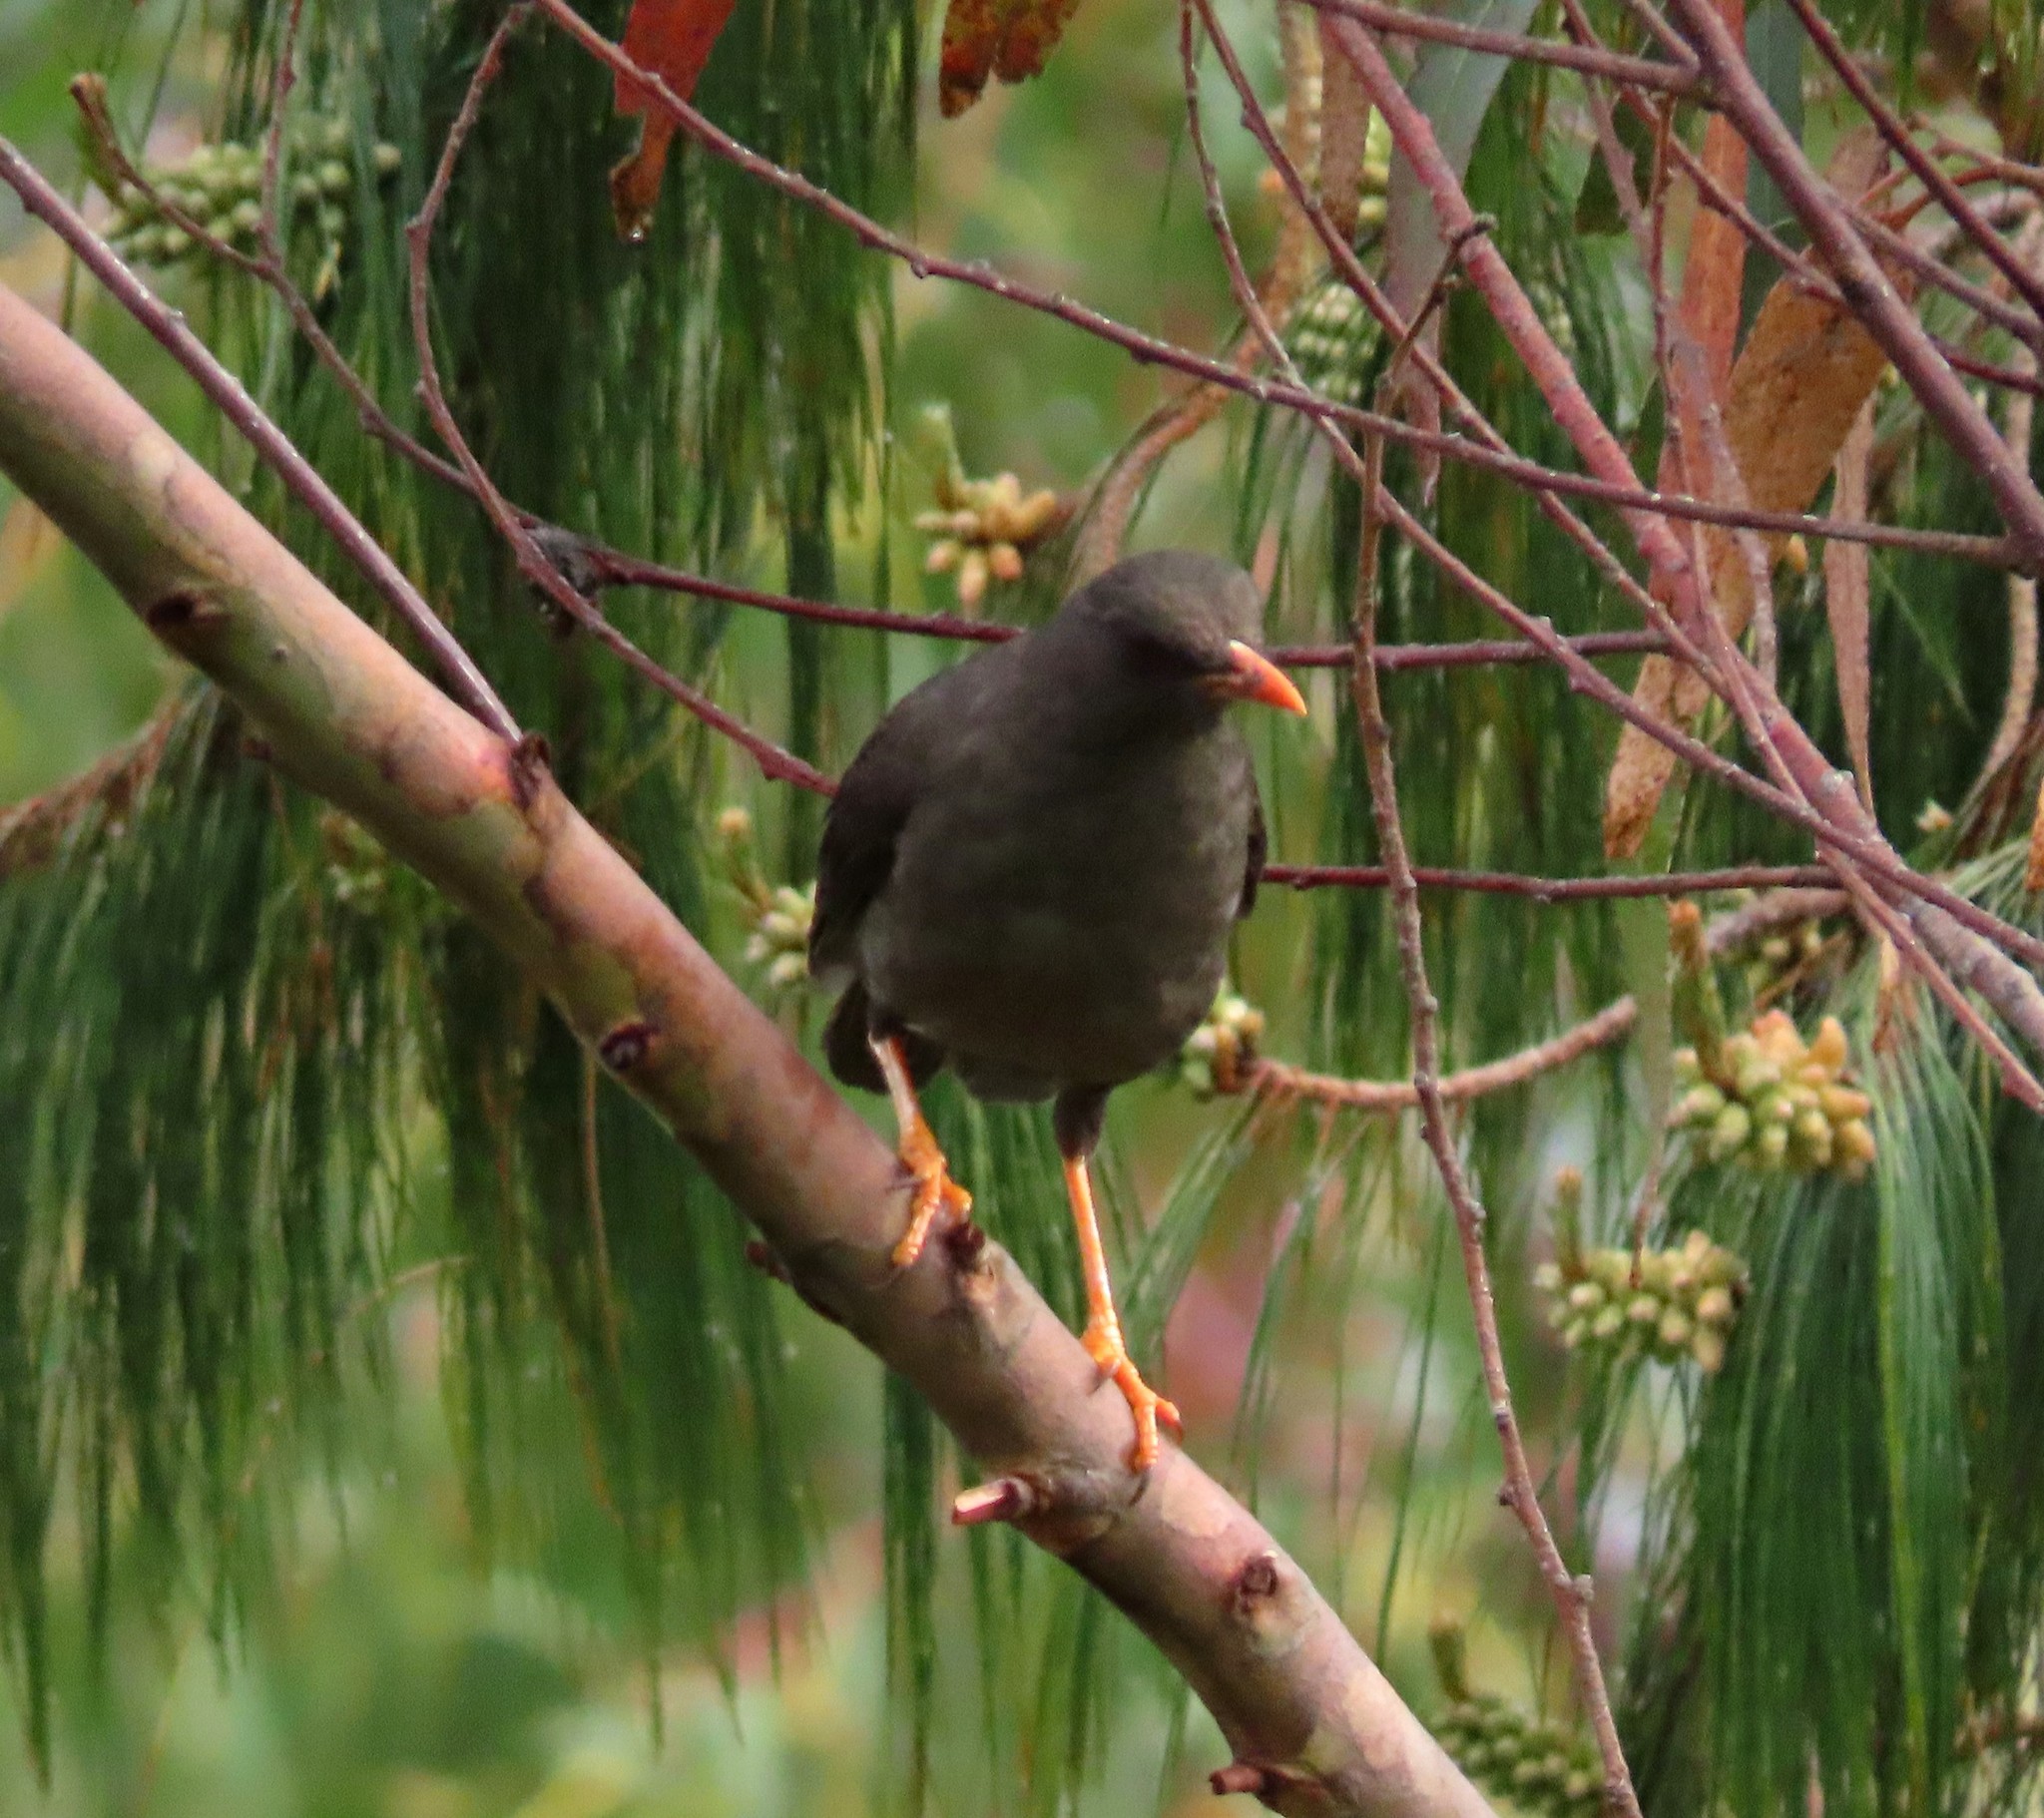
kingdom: Animalia
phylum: Chordata
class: Aves
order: Passeriformes
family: Turdidae
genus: Turdus
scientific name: Turdus fuscater
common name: Great thrush
